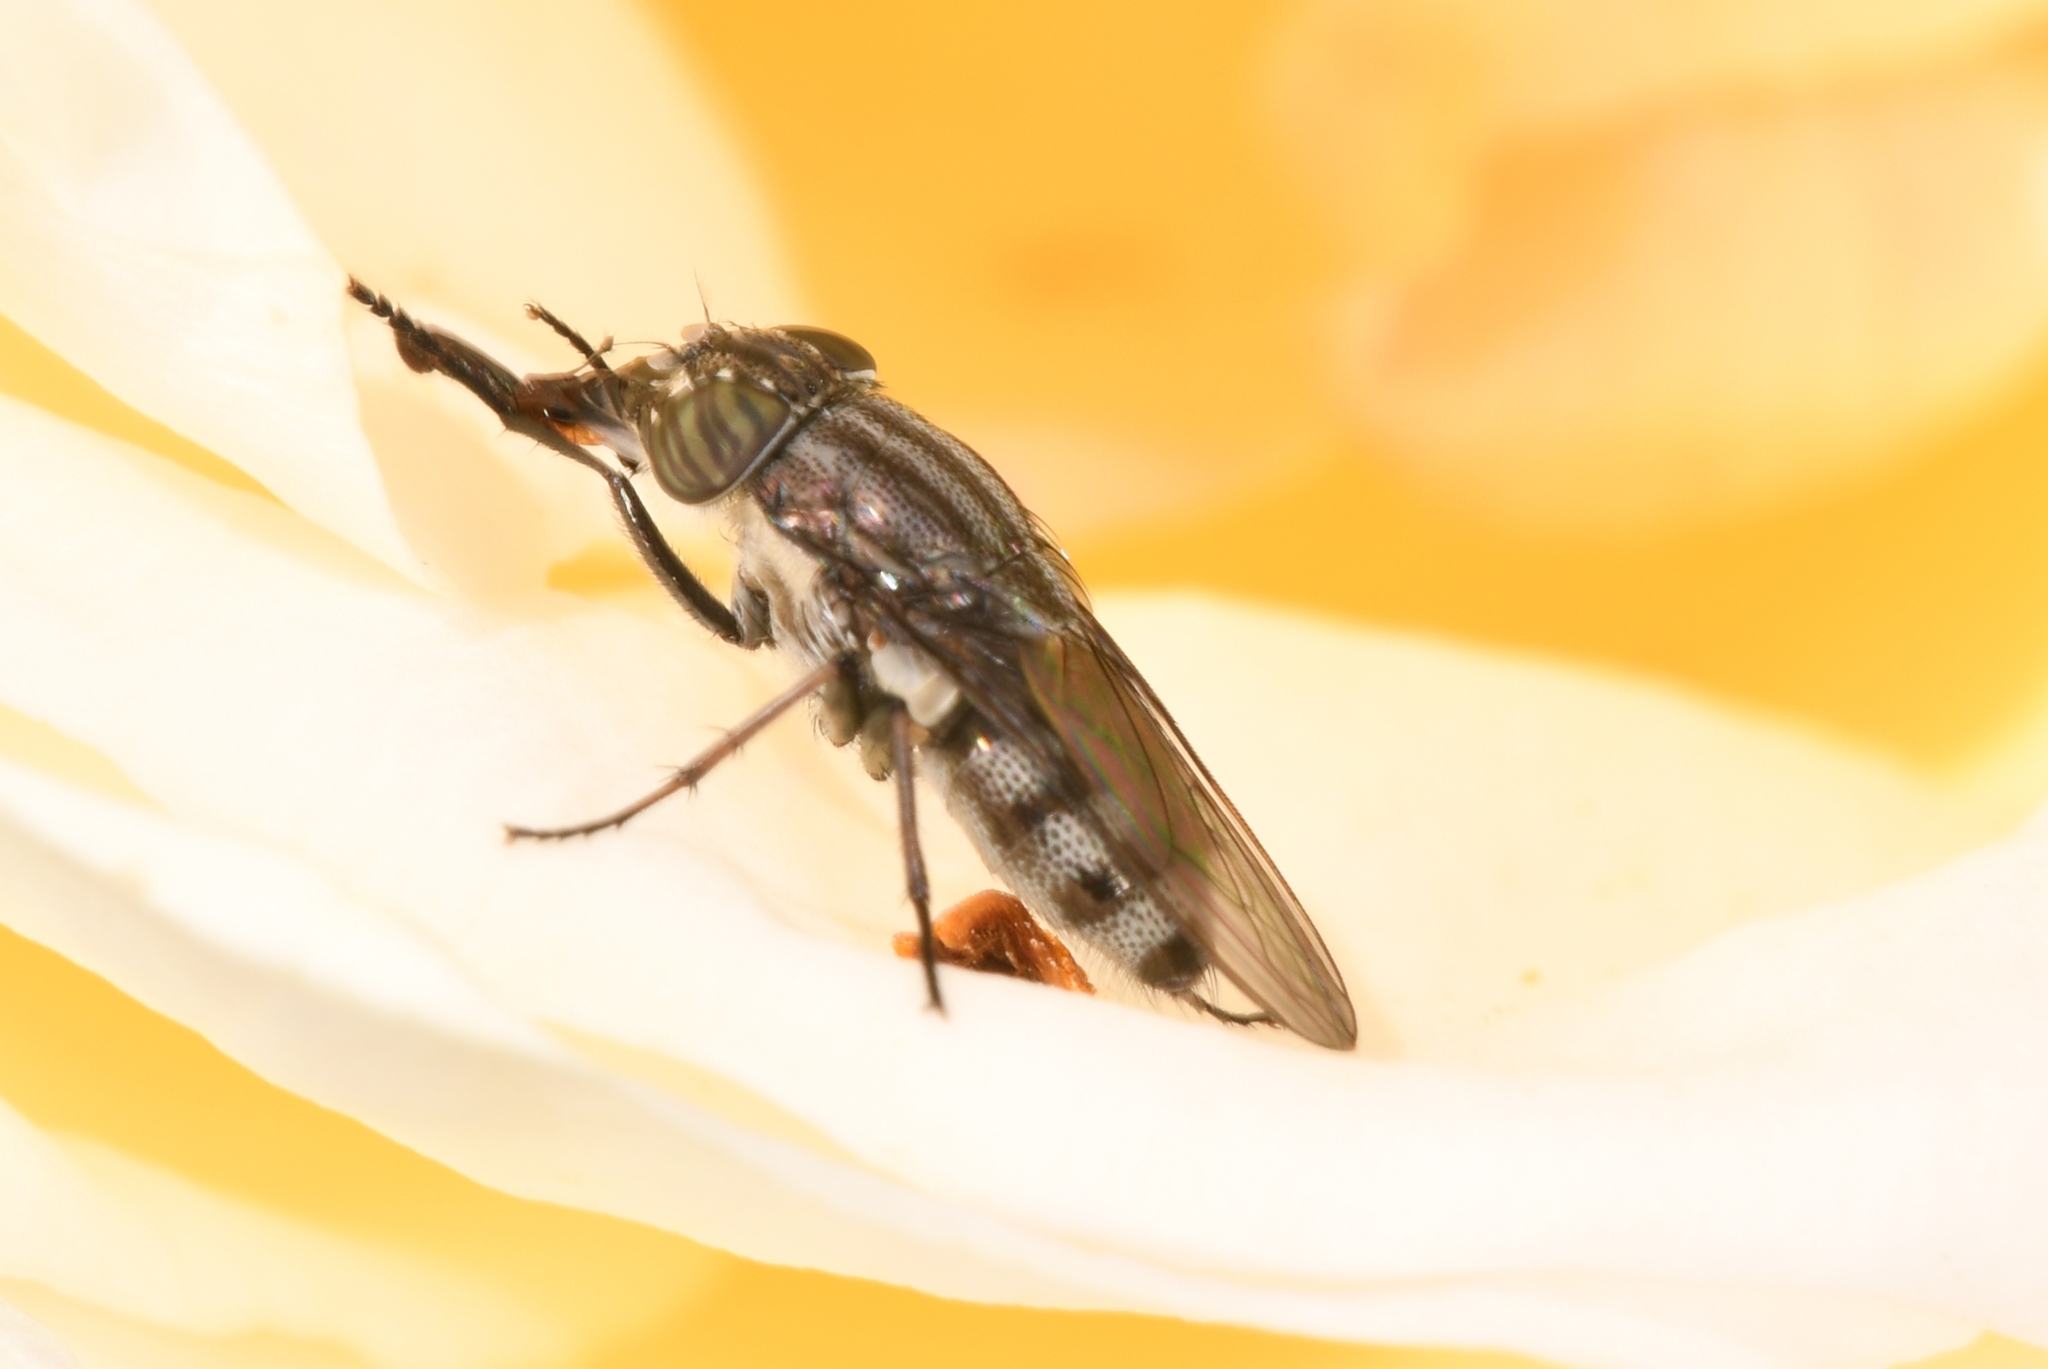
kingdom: Animalia
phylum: Arthropoda
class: Insecta
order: Diptera
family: Calliphoridae
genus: Stomorhina
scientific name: Stomorhina lunata
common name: Locust blowfly
